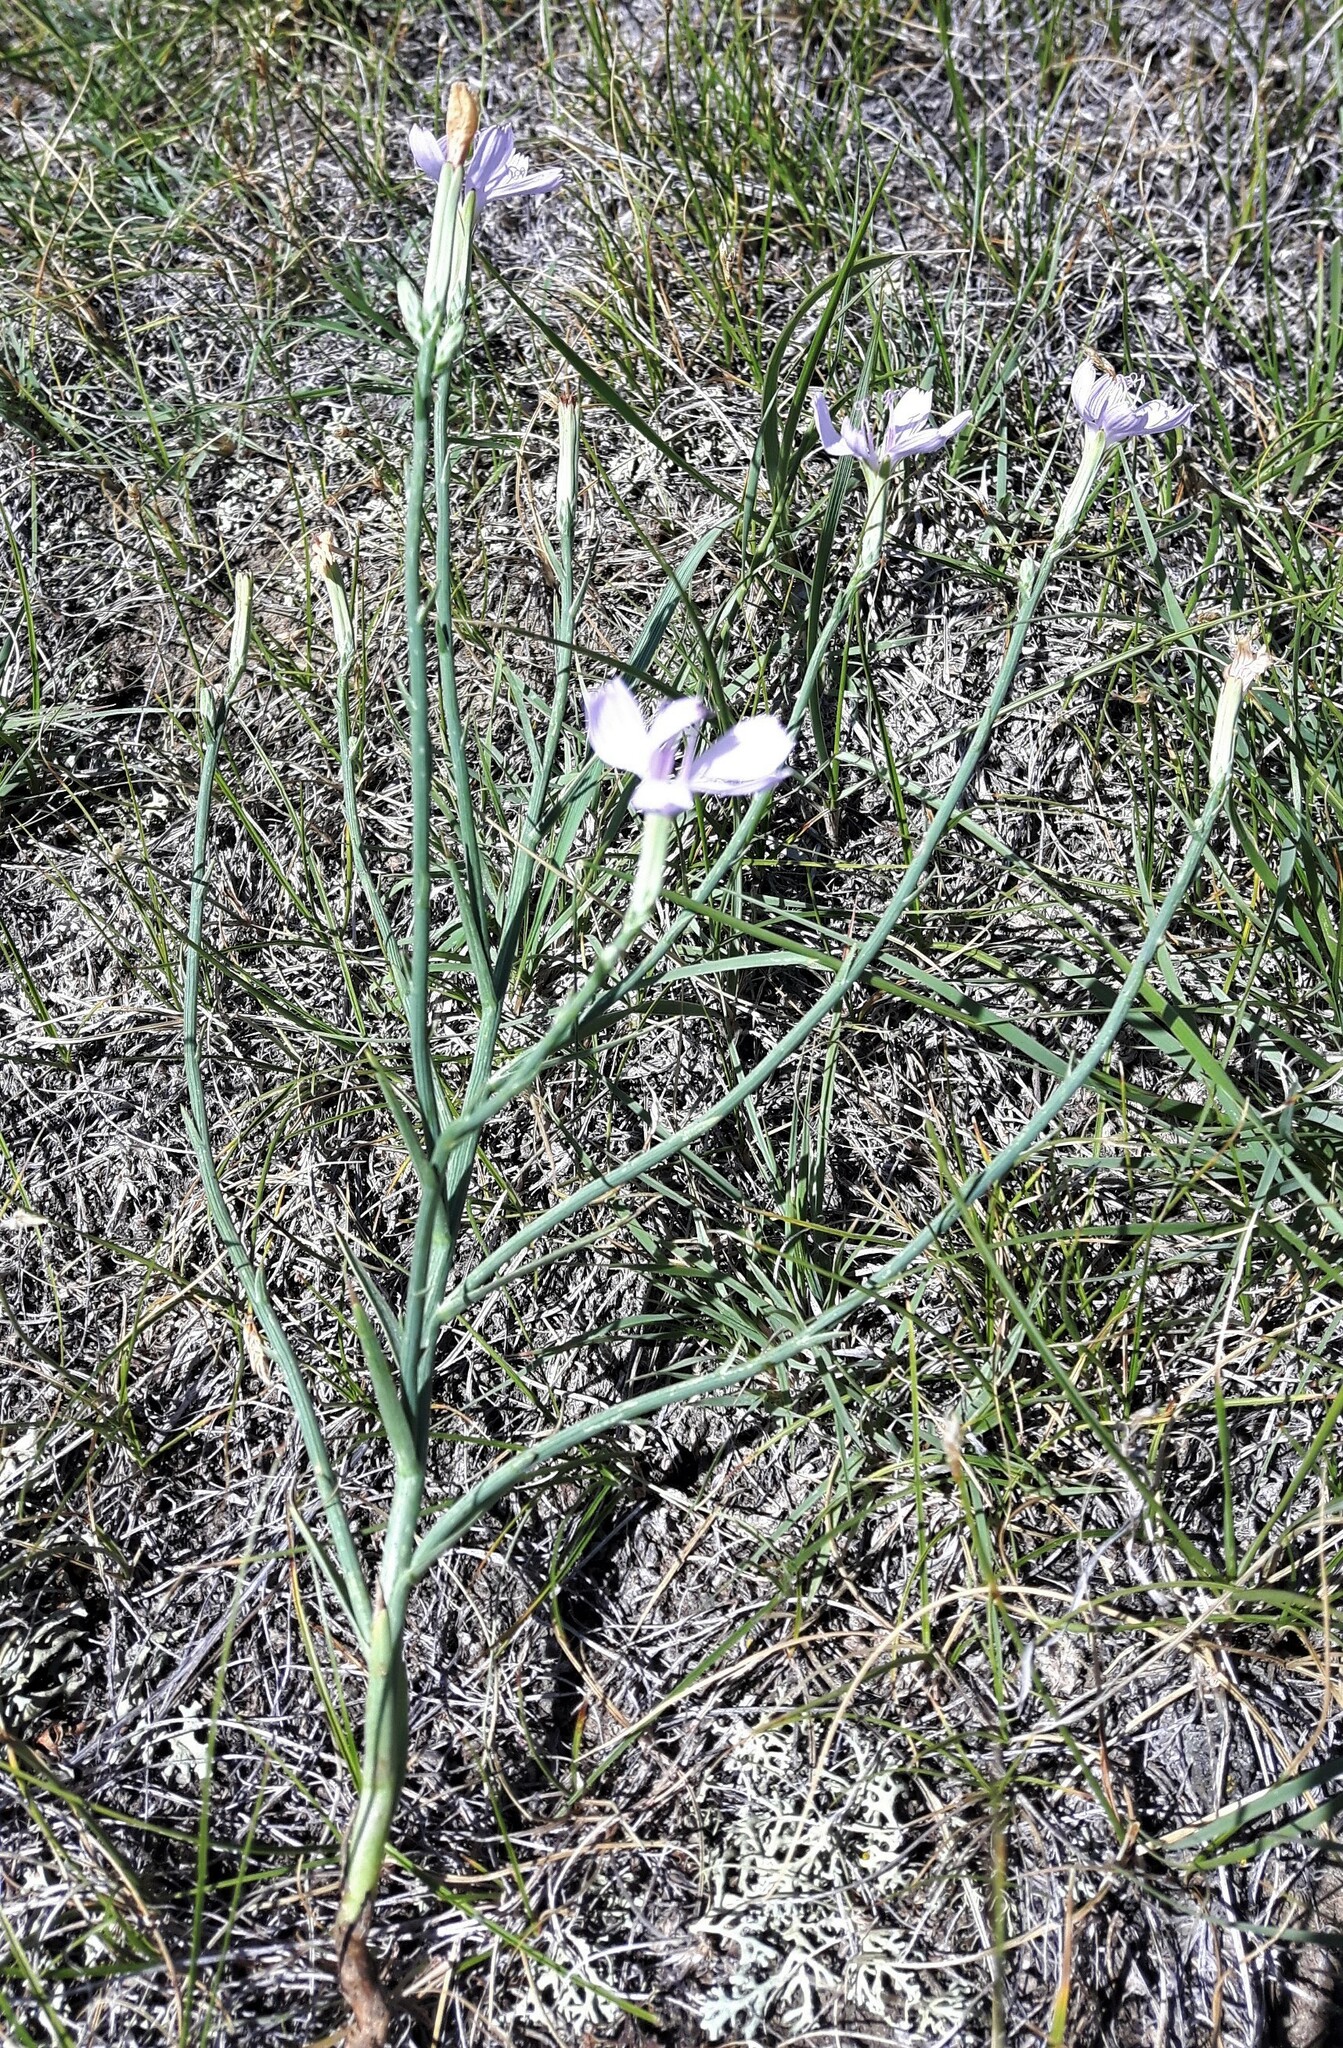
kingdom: Plantae
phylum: Tracheophyta
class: Magnoliopsida
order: Asterales
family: Asteraceae
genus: Lygodesmia
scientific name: Lygodesmia juncea
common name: Common skeletonweed
